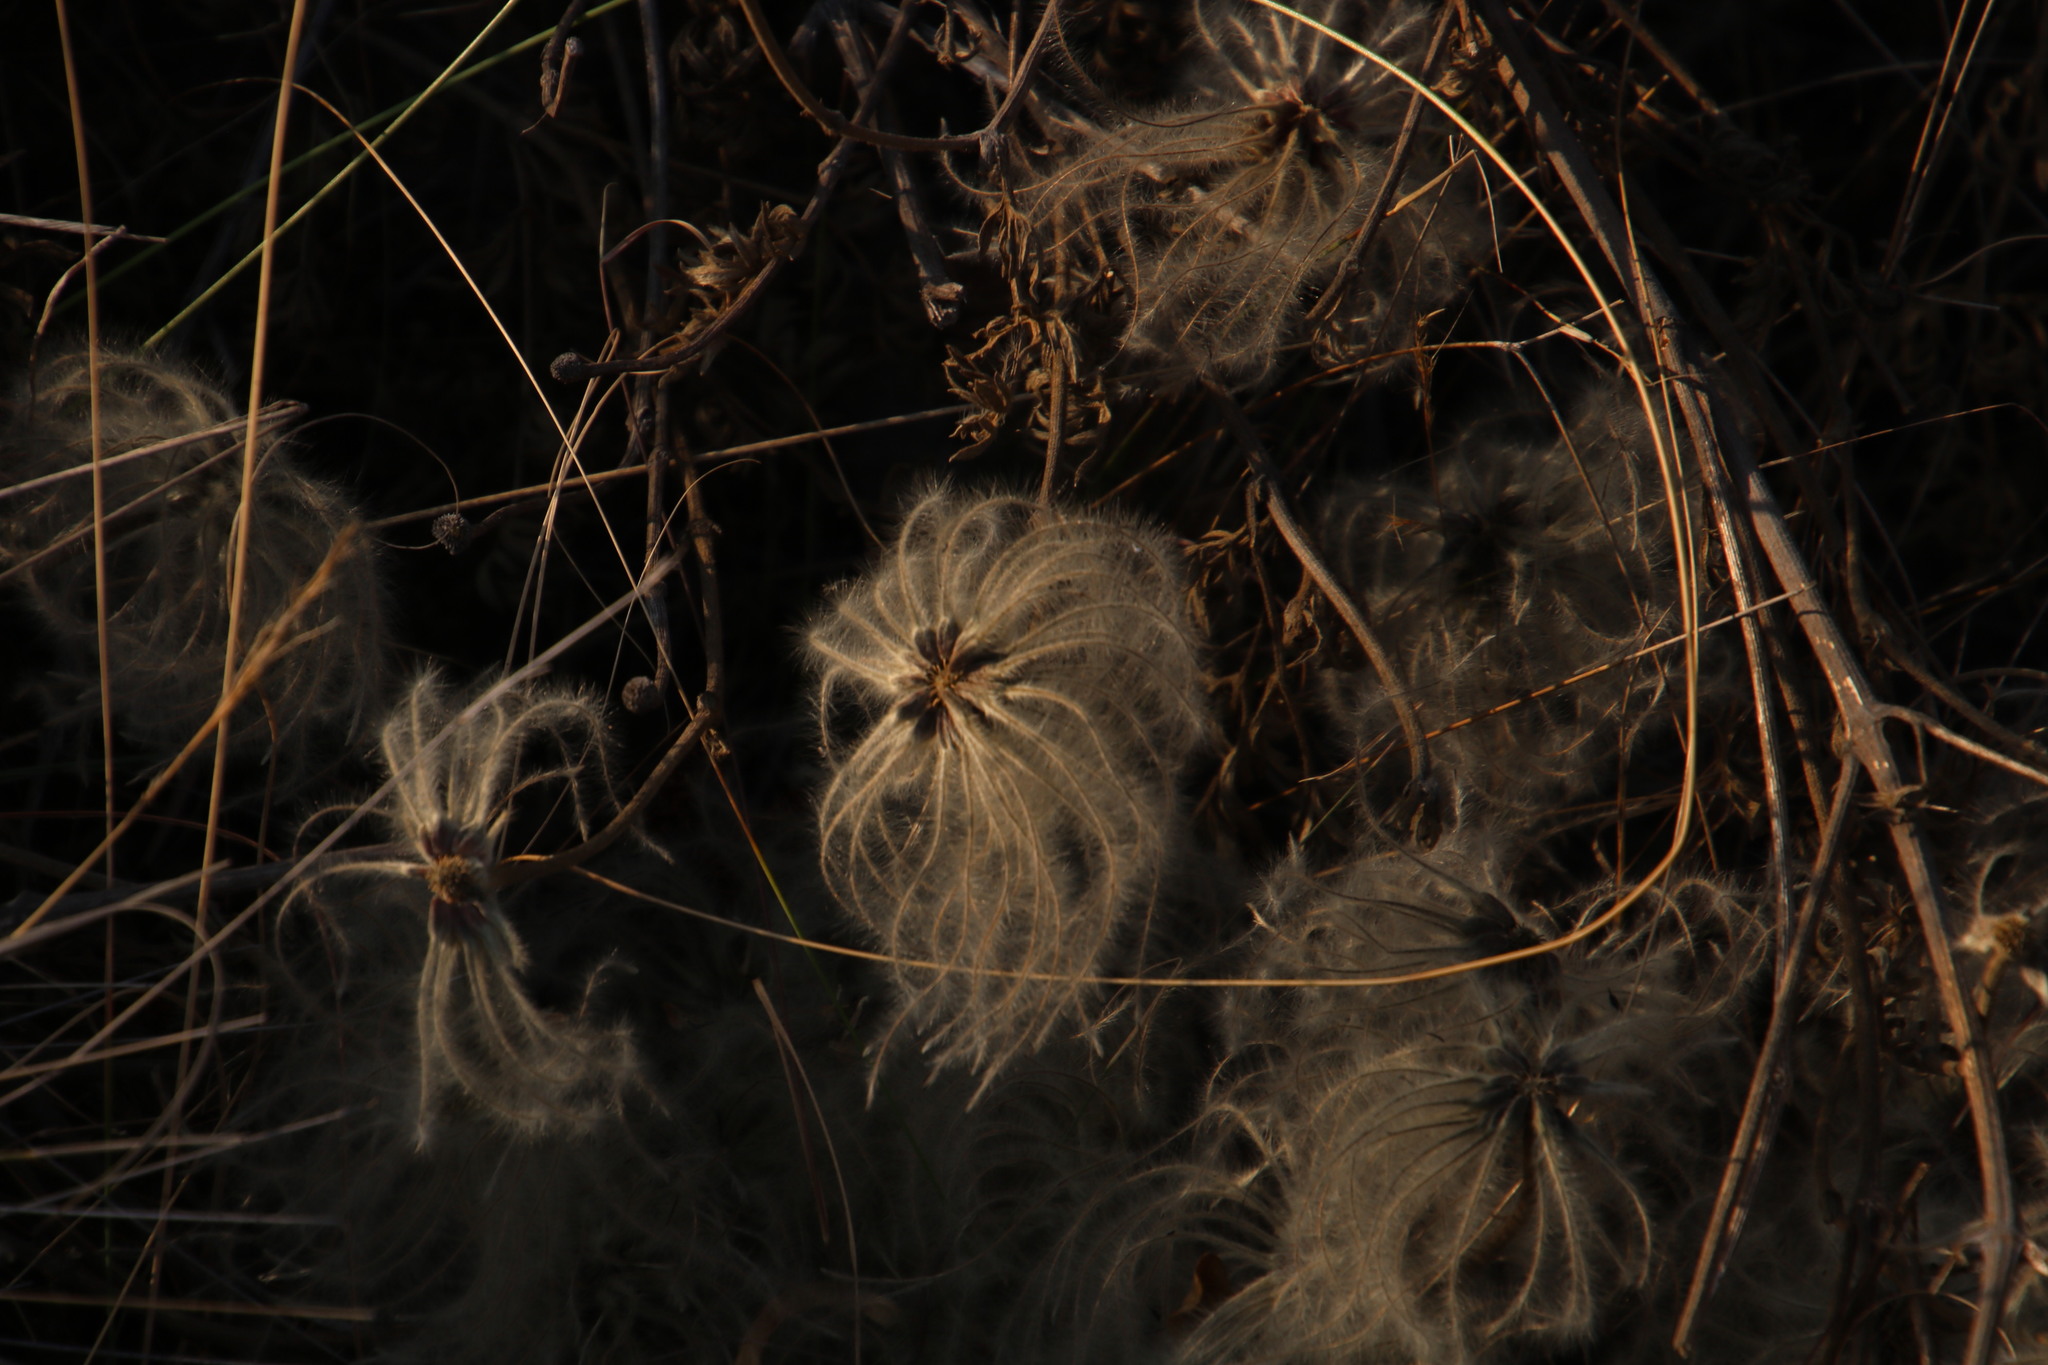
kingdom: Plantae
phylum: Tracheophyta
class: Magnoliopsida
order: Ranunculales
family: Ranunculaceae
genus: Clematis
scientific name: Clematis brachiata
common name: Traveler's-joy
